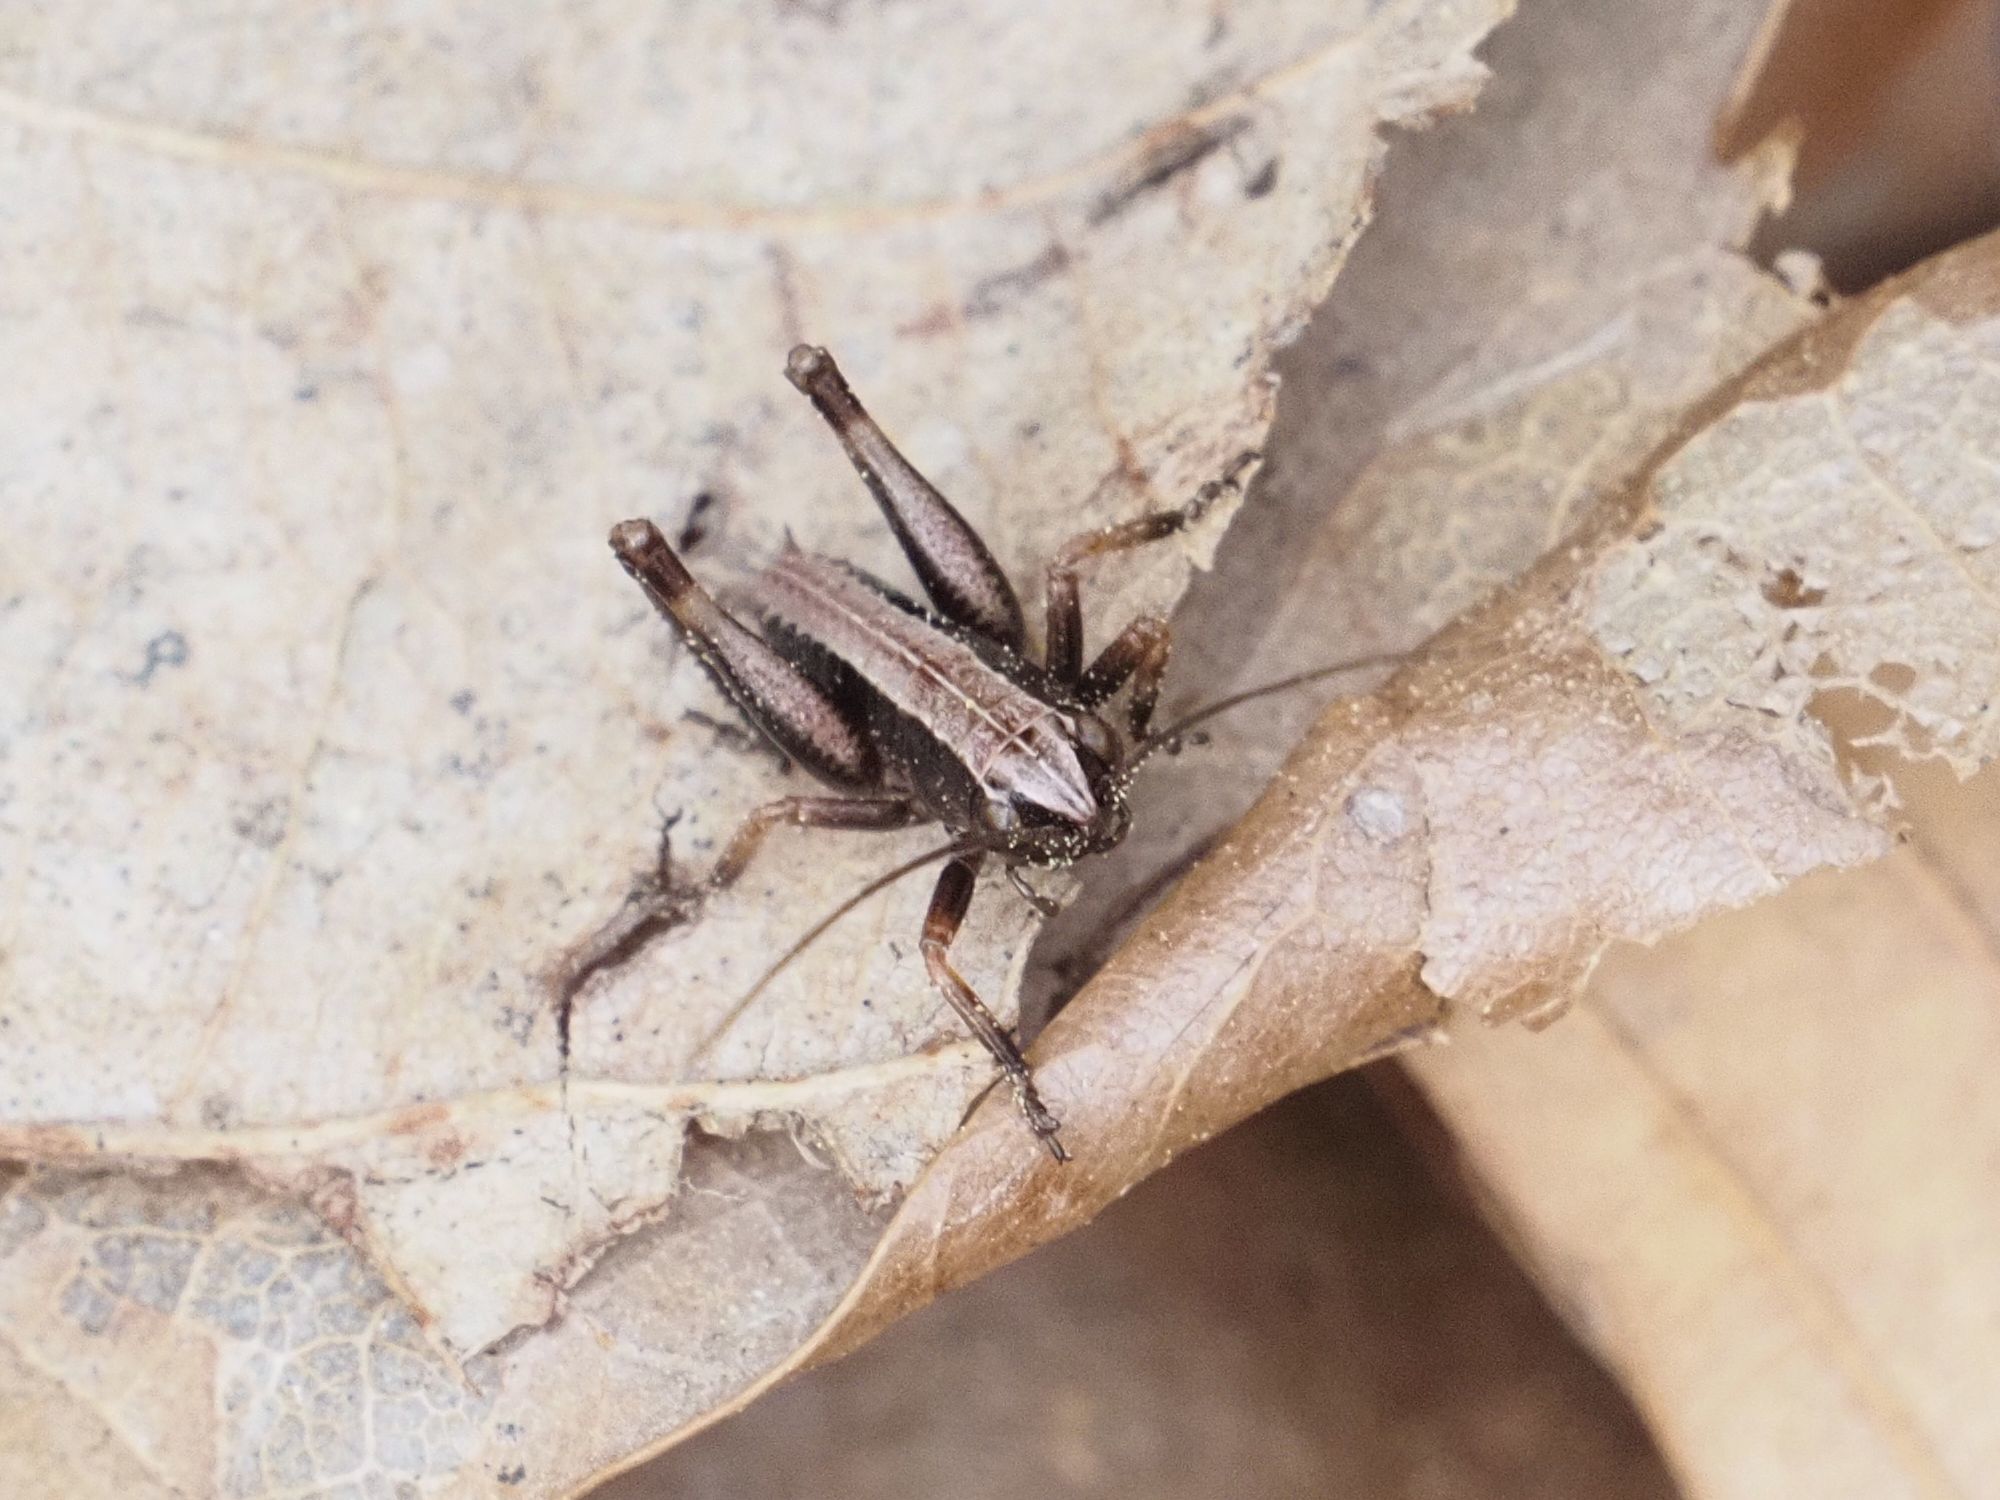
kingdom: Animalia
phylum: Arthropoda
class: Insecta
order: Orthoptera
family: Tettigoniidae
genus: Pholidoptera
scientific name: Pholidoptera griseoaptera
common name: Dark bush-cricket
